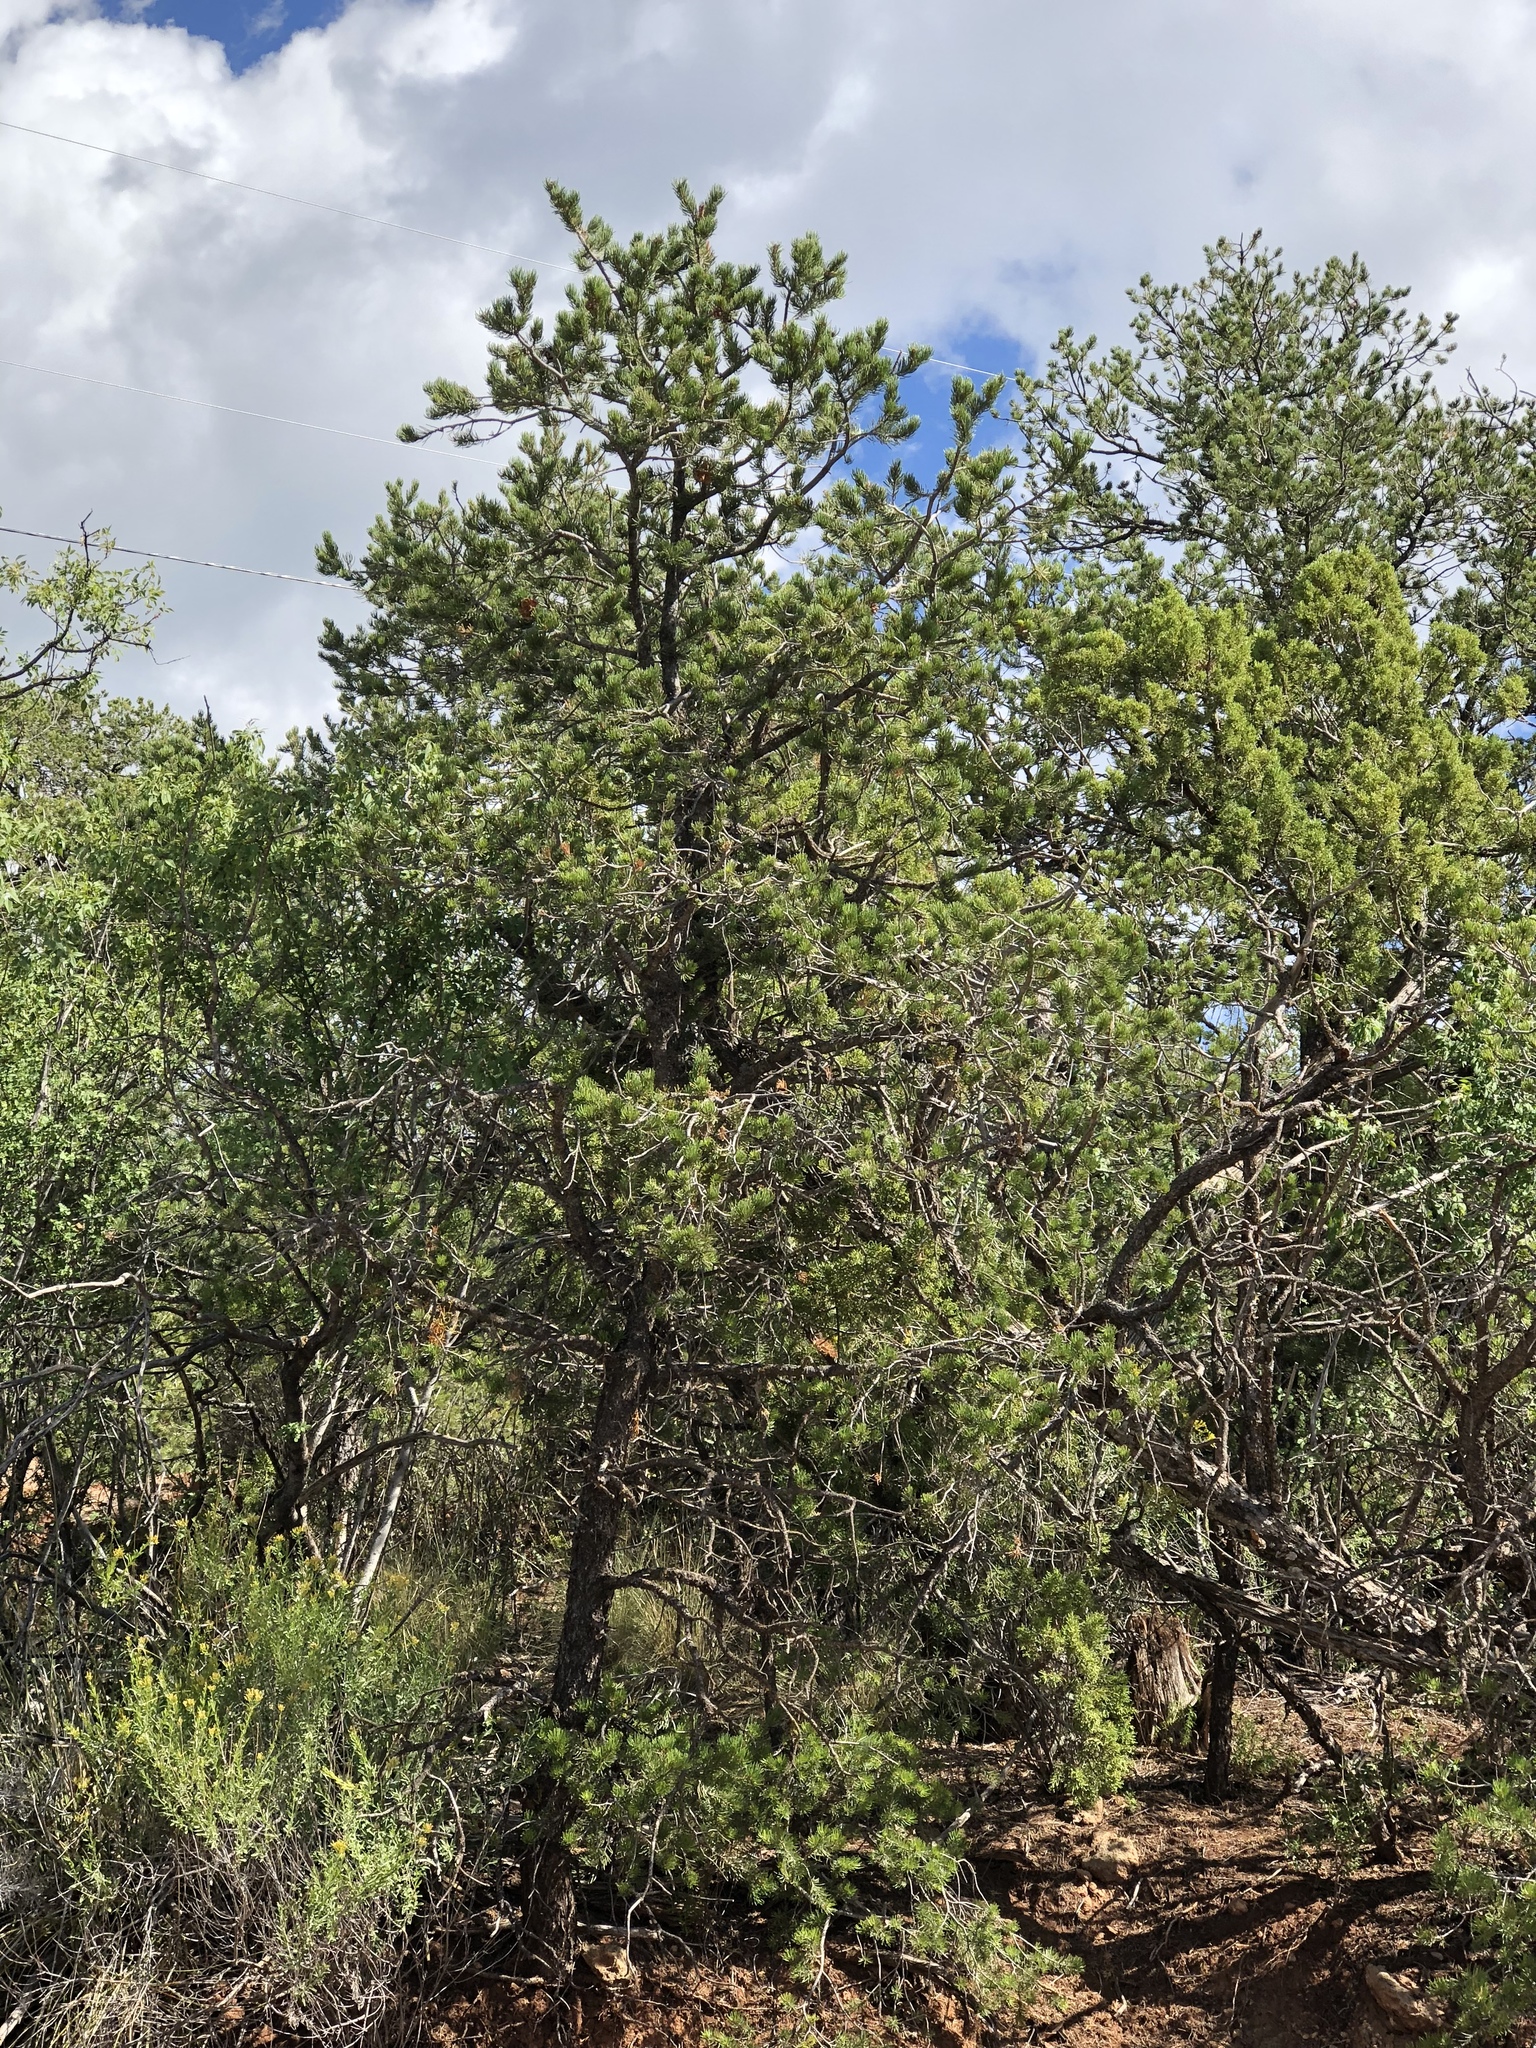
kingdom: Plantae
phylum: Tracheophyta
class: Pinopsida
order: Pinales
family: Pinaceae
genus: Pinus
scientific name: Pinus edulis
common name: Colorado pinyon
